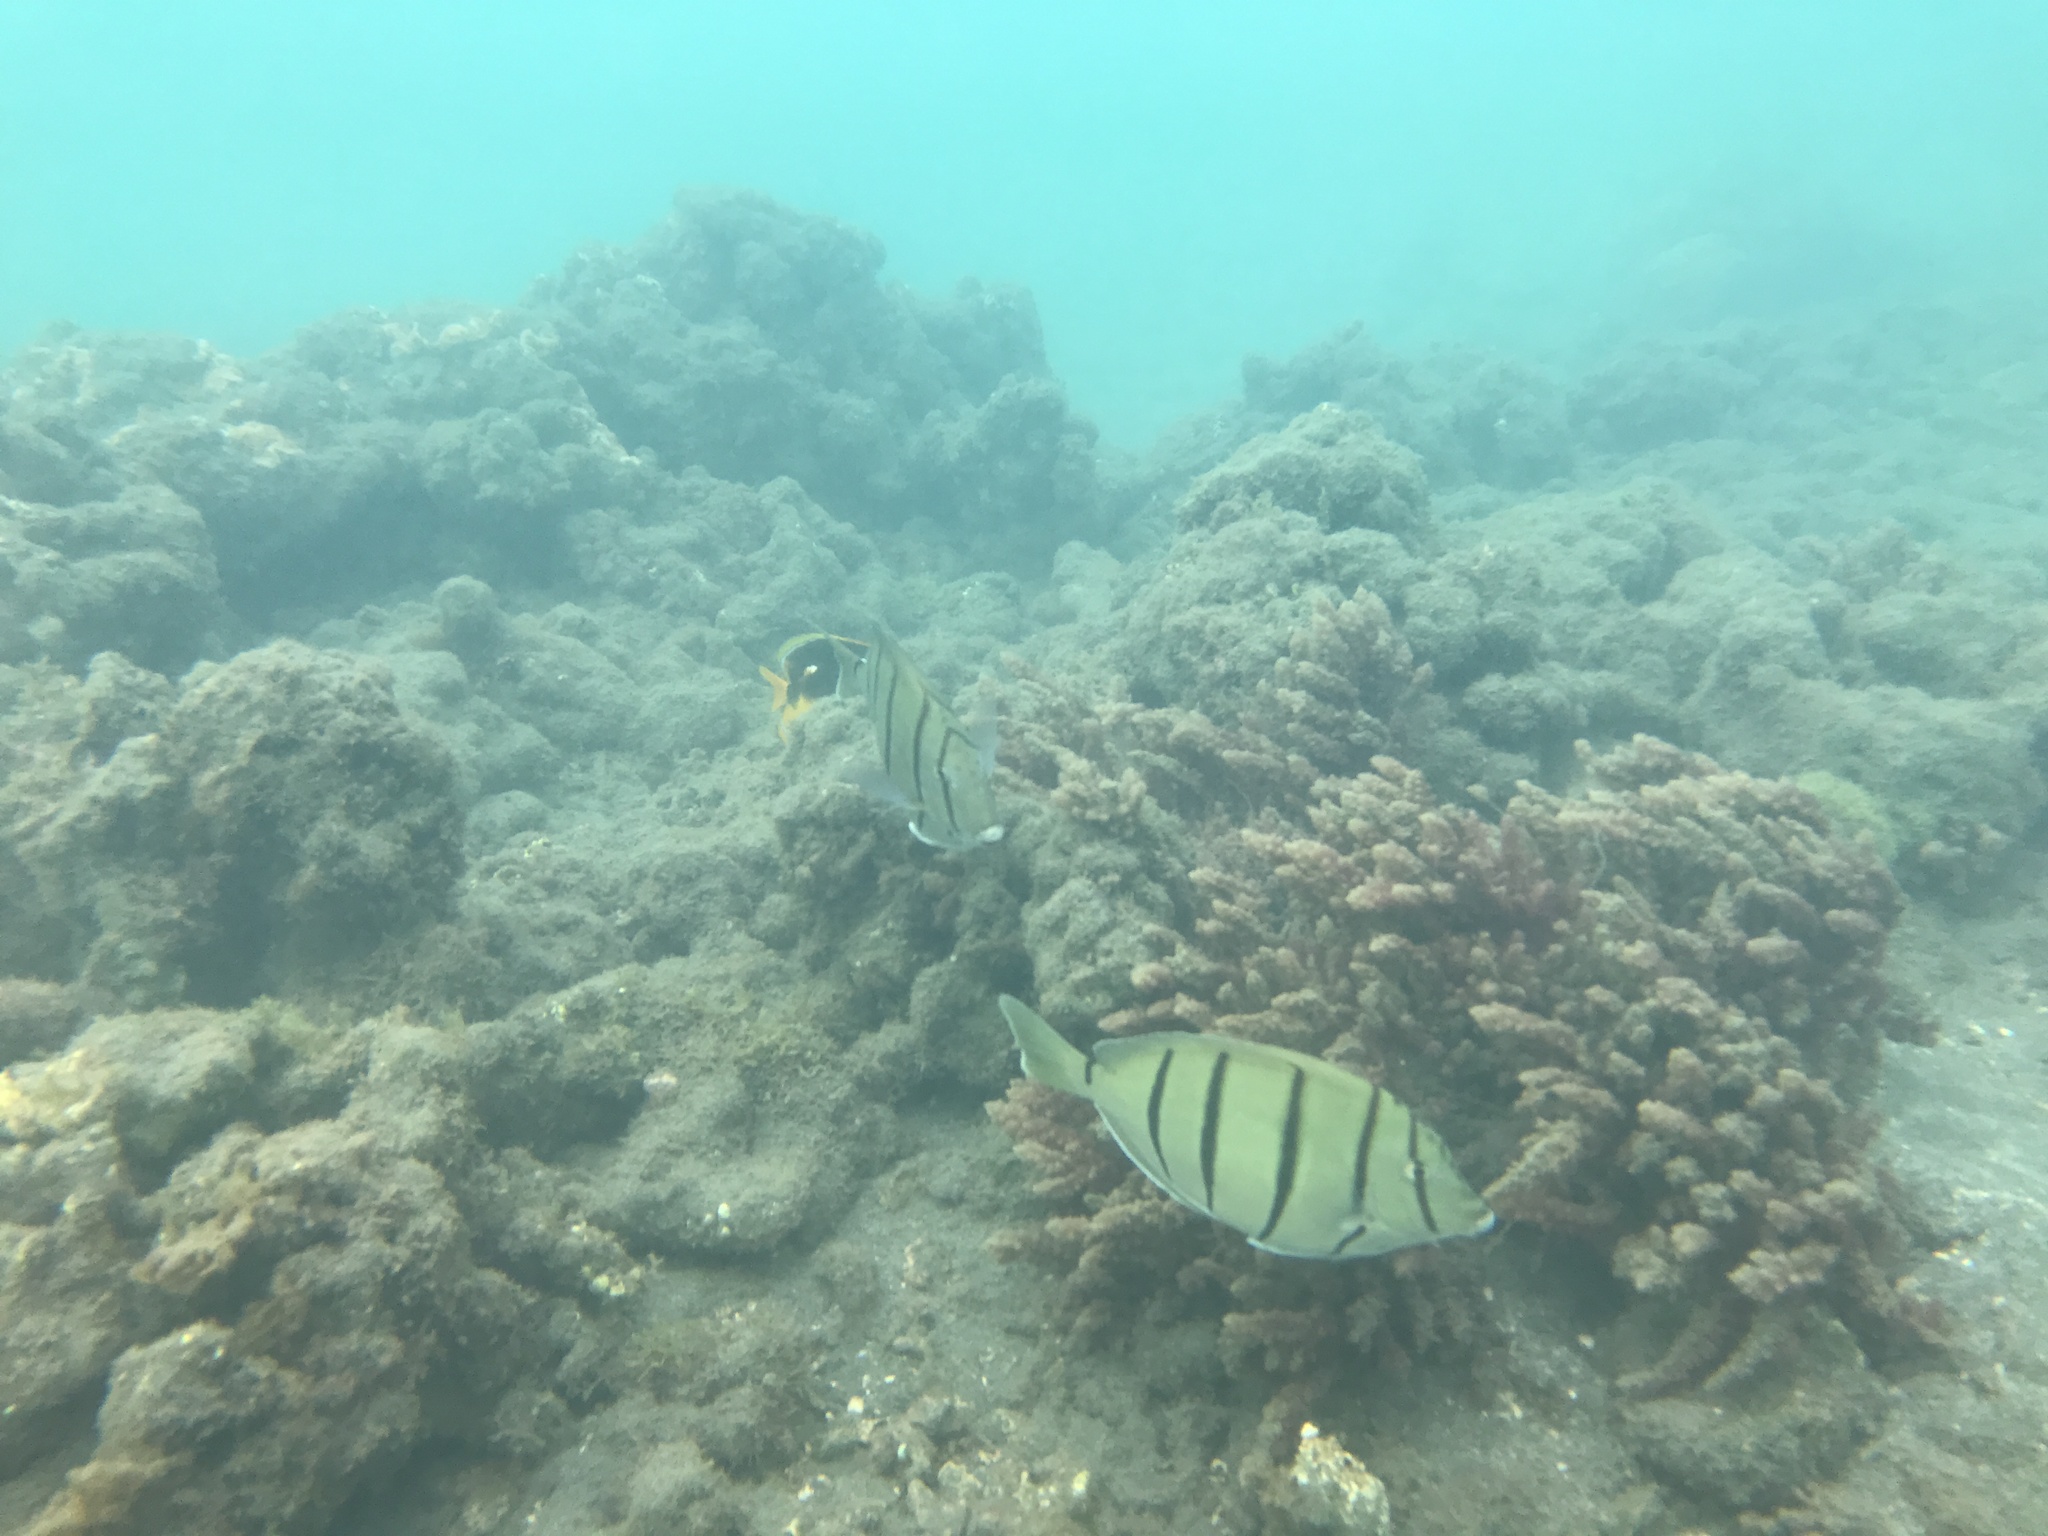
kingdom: Animalia
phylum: Chordata
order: Perciformes
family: Acanthuridae
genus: Acanthurus
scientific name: Acanthurus triostegus
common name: Convict surgeonfish
